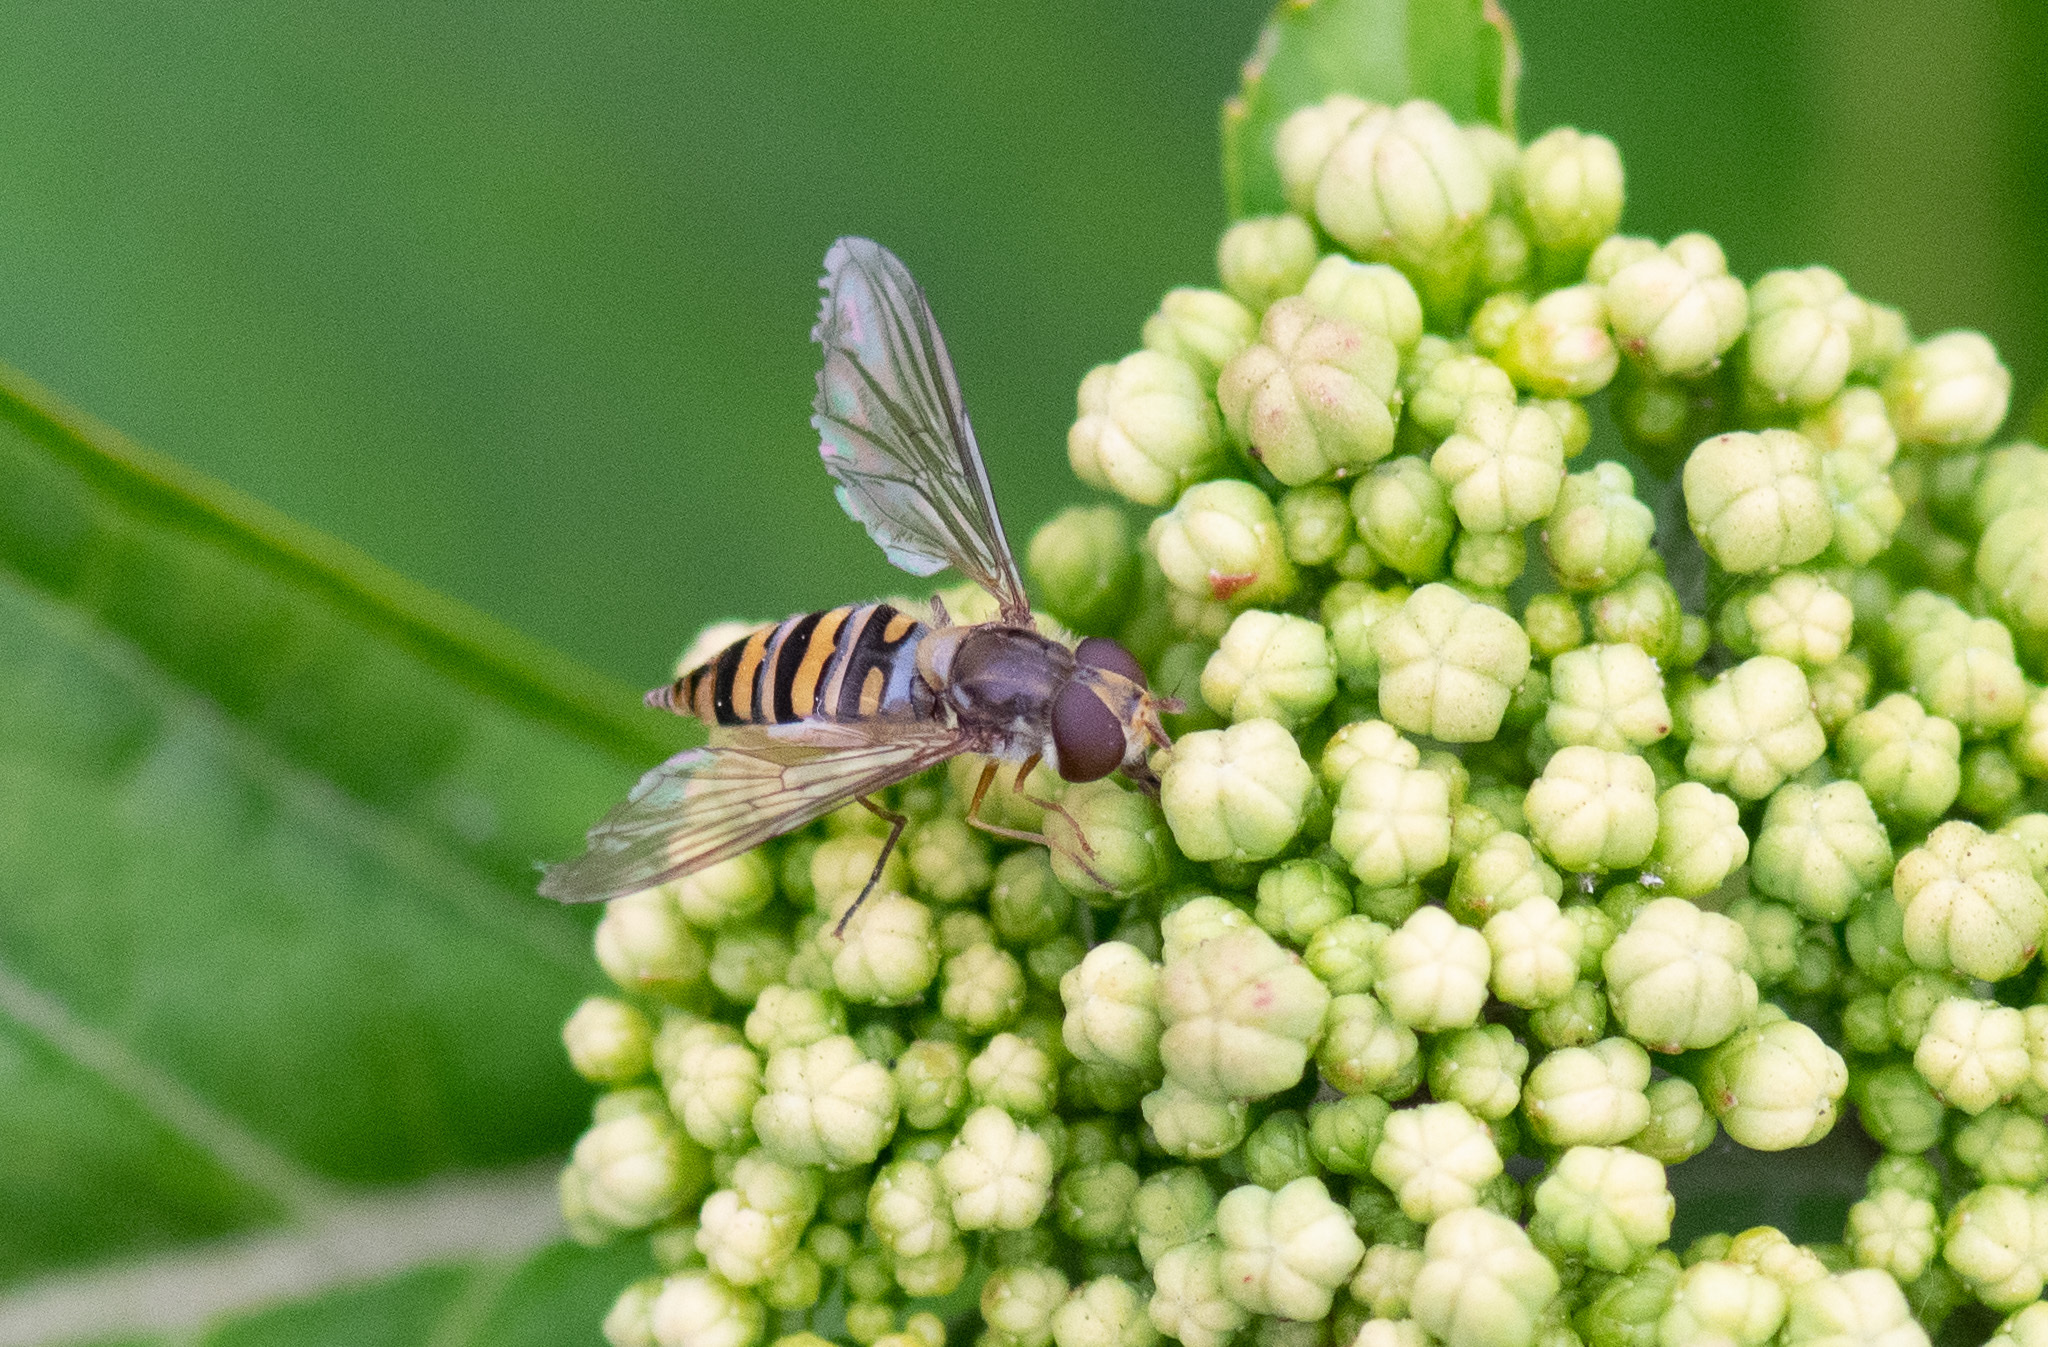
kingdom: Animalia
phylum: Arthropoda
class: Insecta
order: Diptera
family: Syrphidae
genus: Episyrphus
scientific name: Episyrphus balteatus
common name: Marmalade hoverfly
